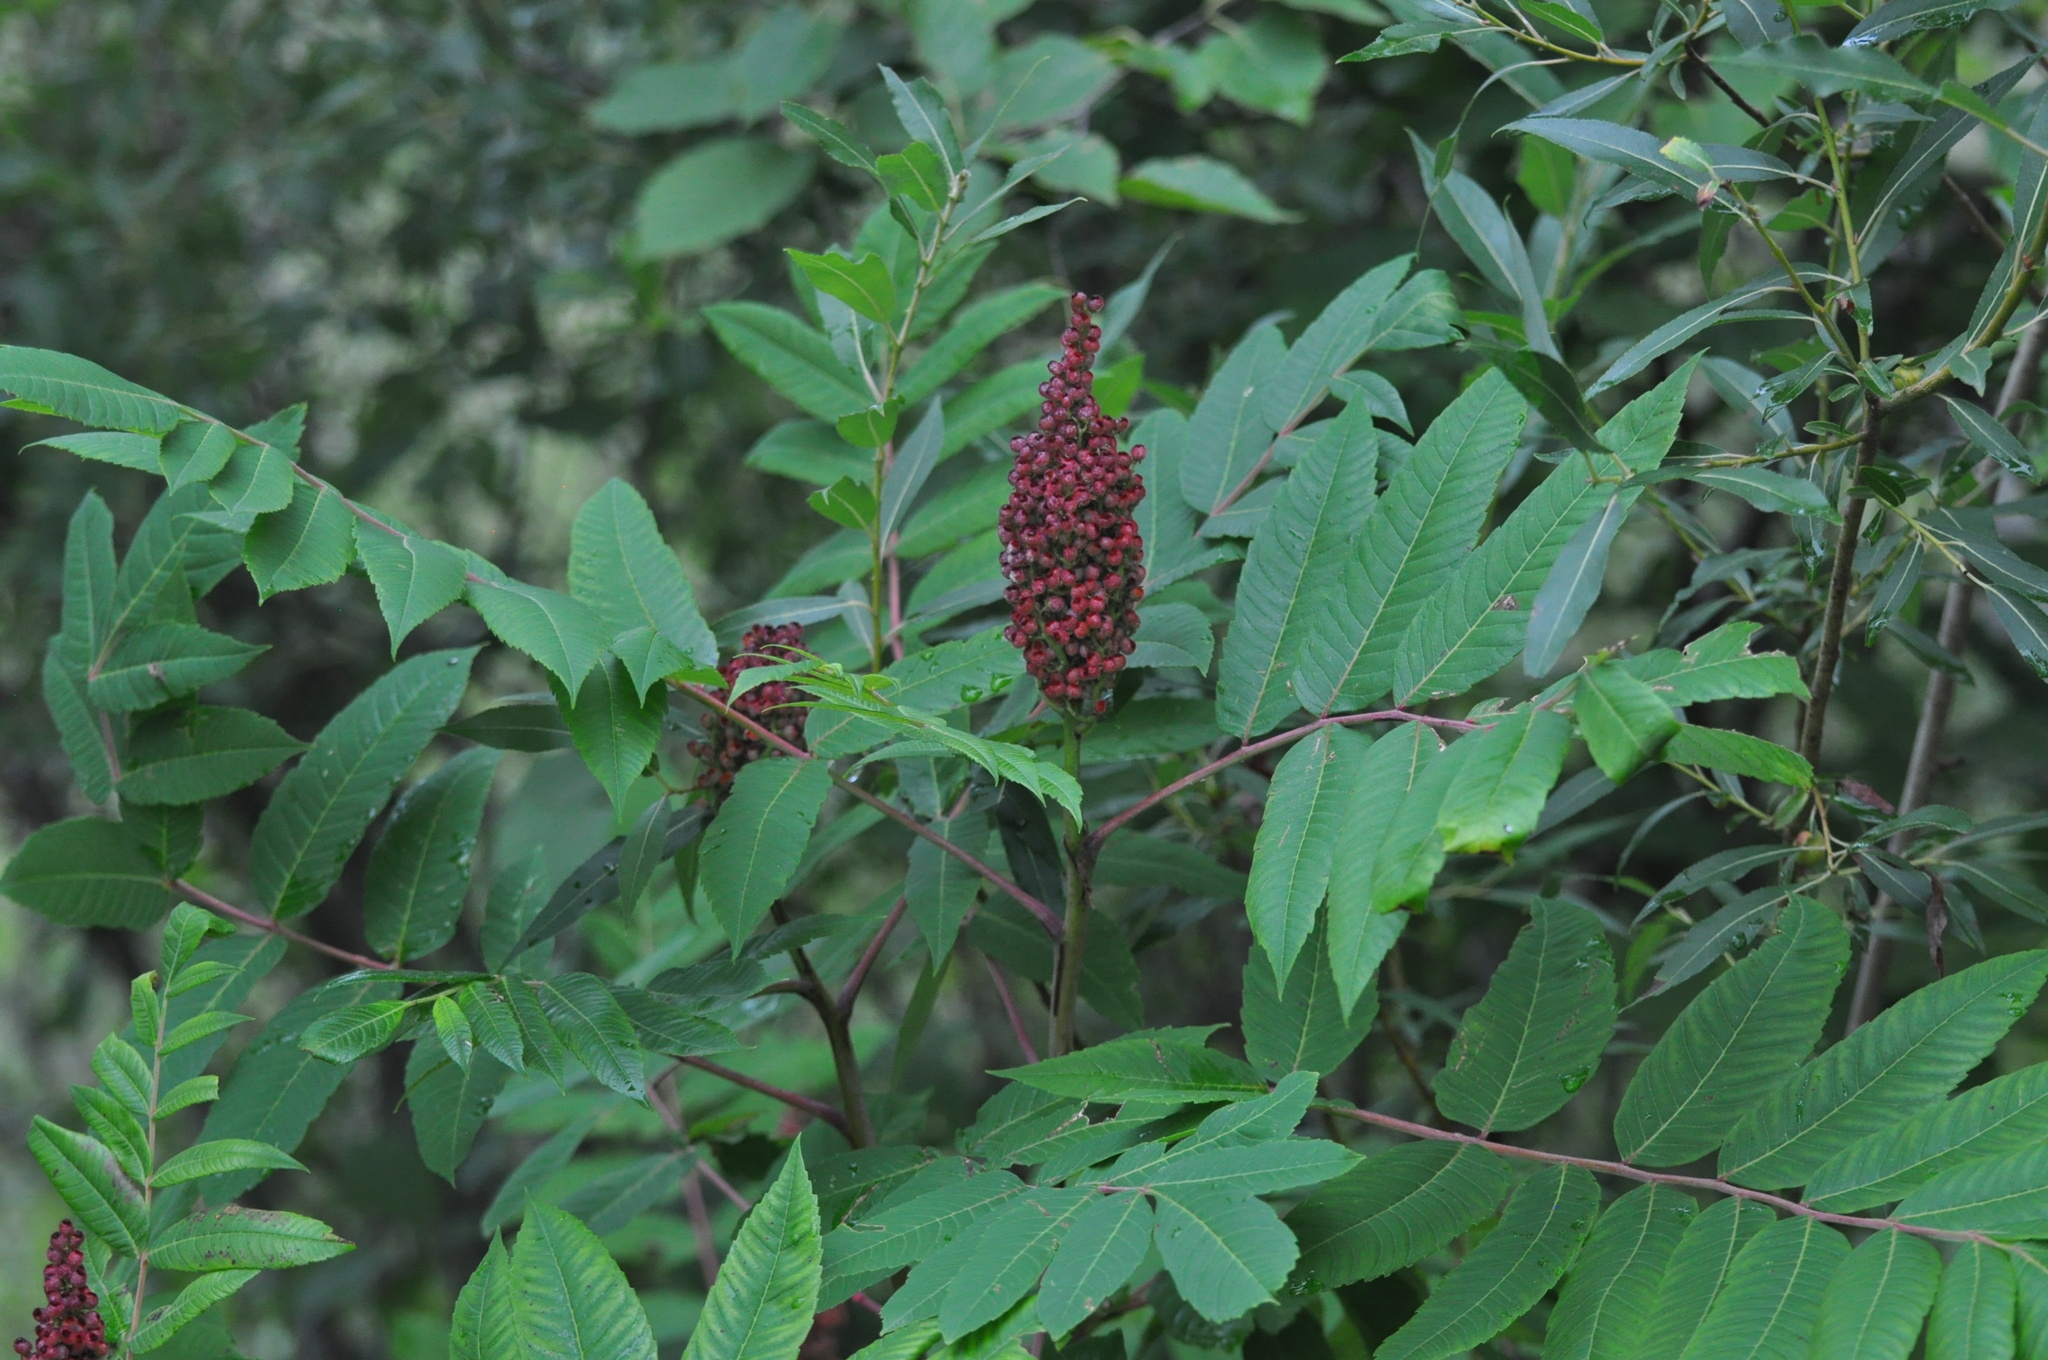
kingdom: Plantae
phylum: Tracheophyta
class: Magnoliopsida
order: Sapindales
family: Anacardiaceae
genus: Rhus
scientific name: Rhus glabra
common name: Scarlet sumac
